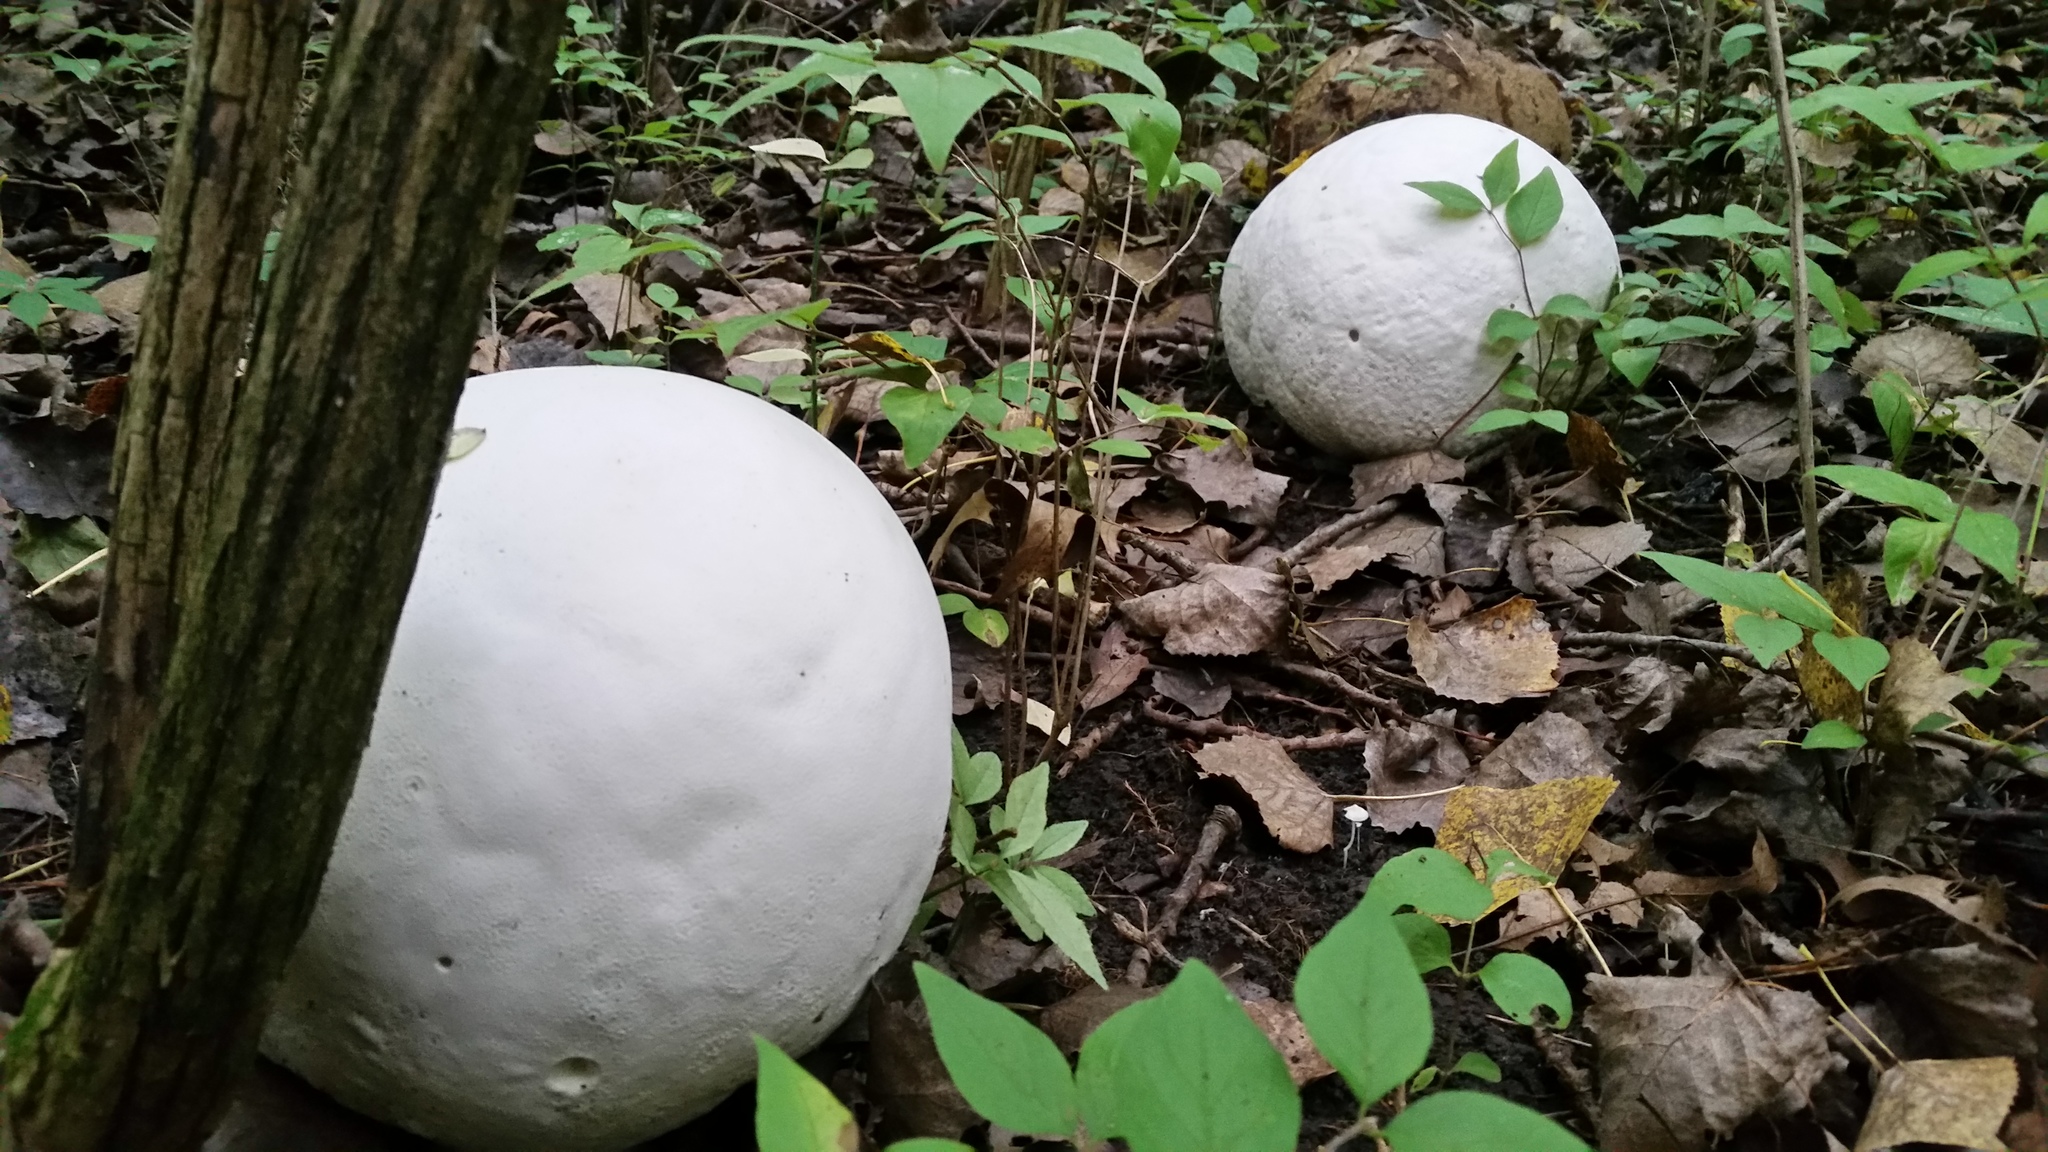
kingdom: Fungi
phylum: Basidiomycota
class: Agaricomycetes
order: Agaricales
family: Lycoperdaceae
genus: Calvatia
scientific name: Calvatia gigantea
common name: Giant puffball
